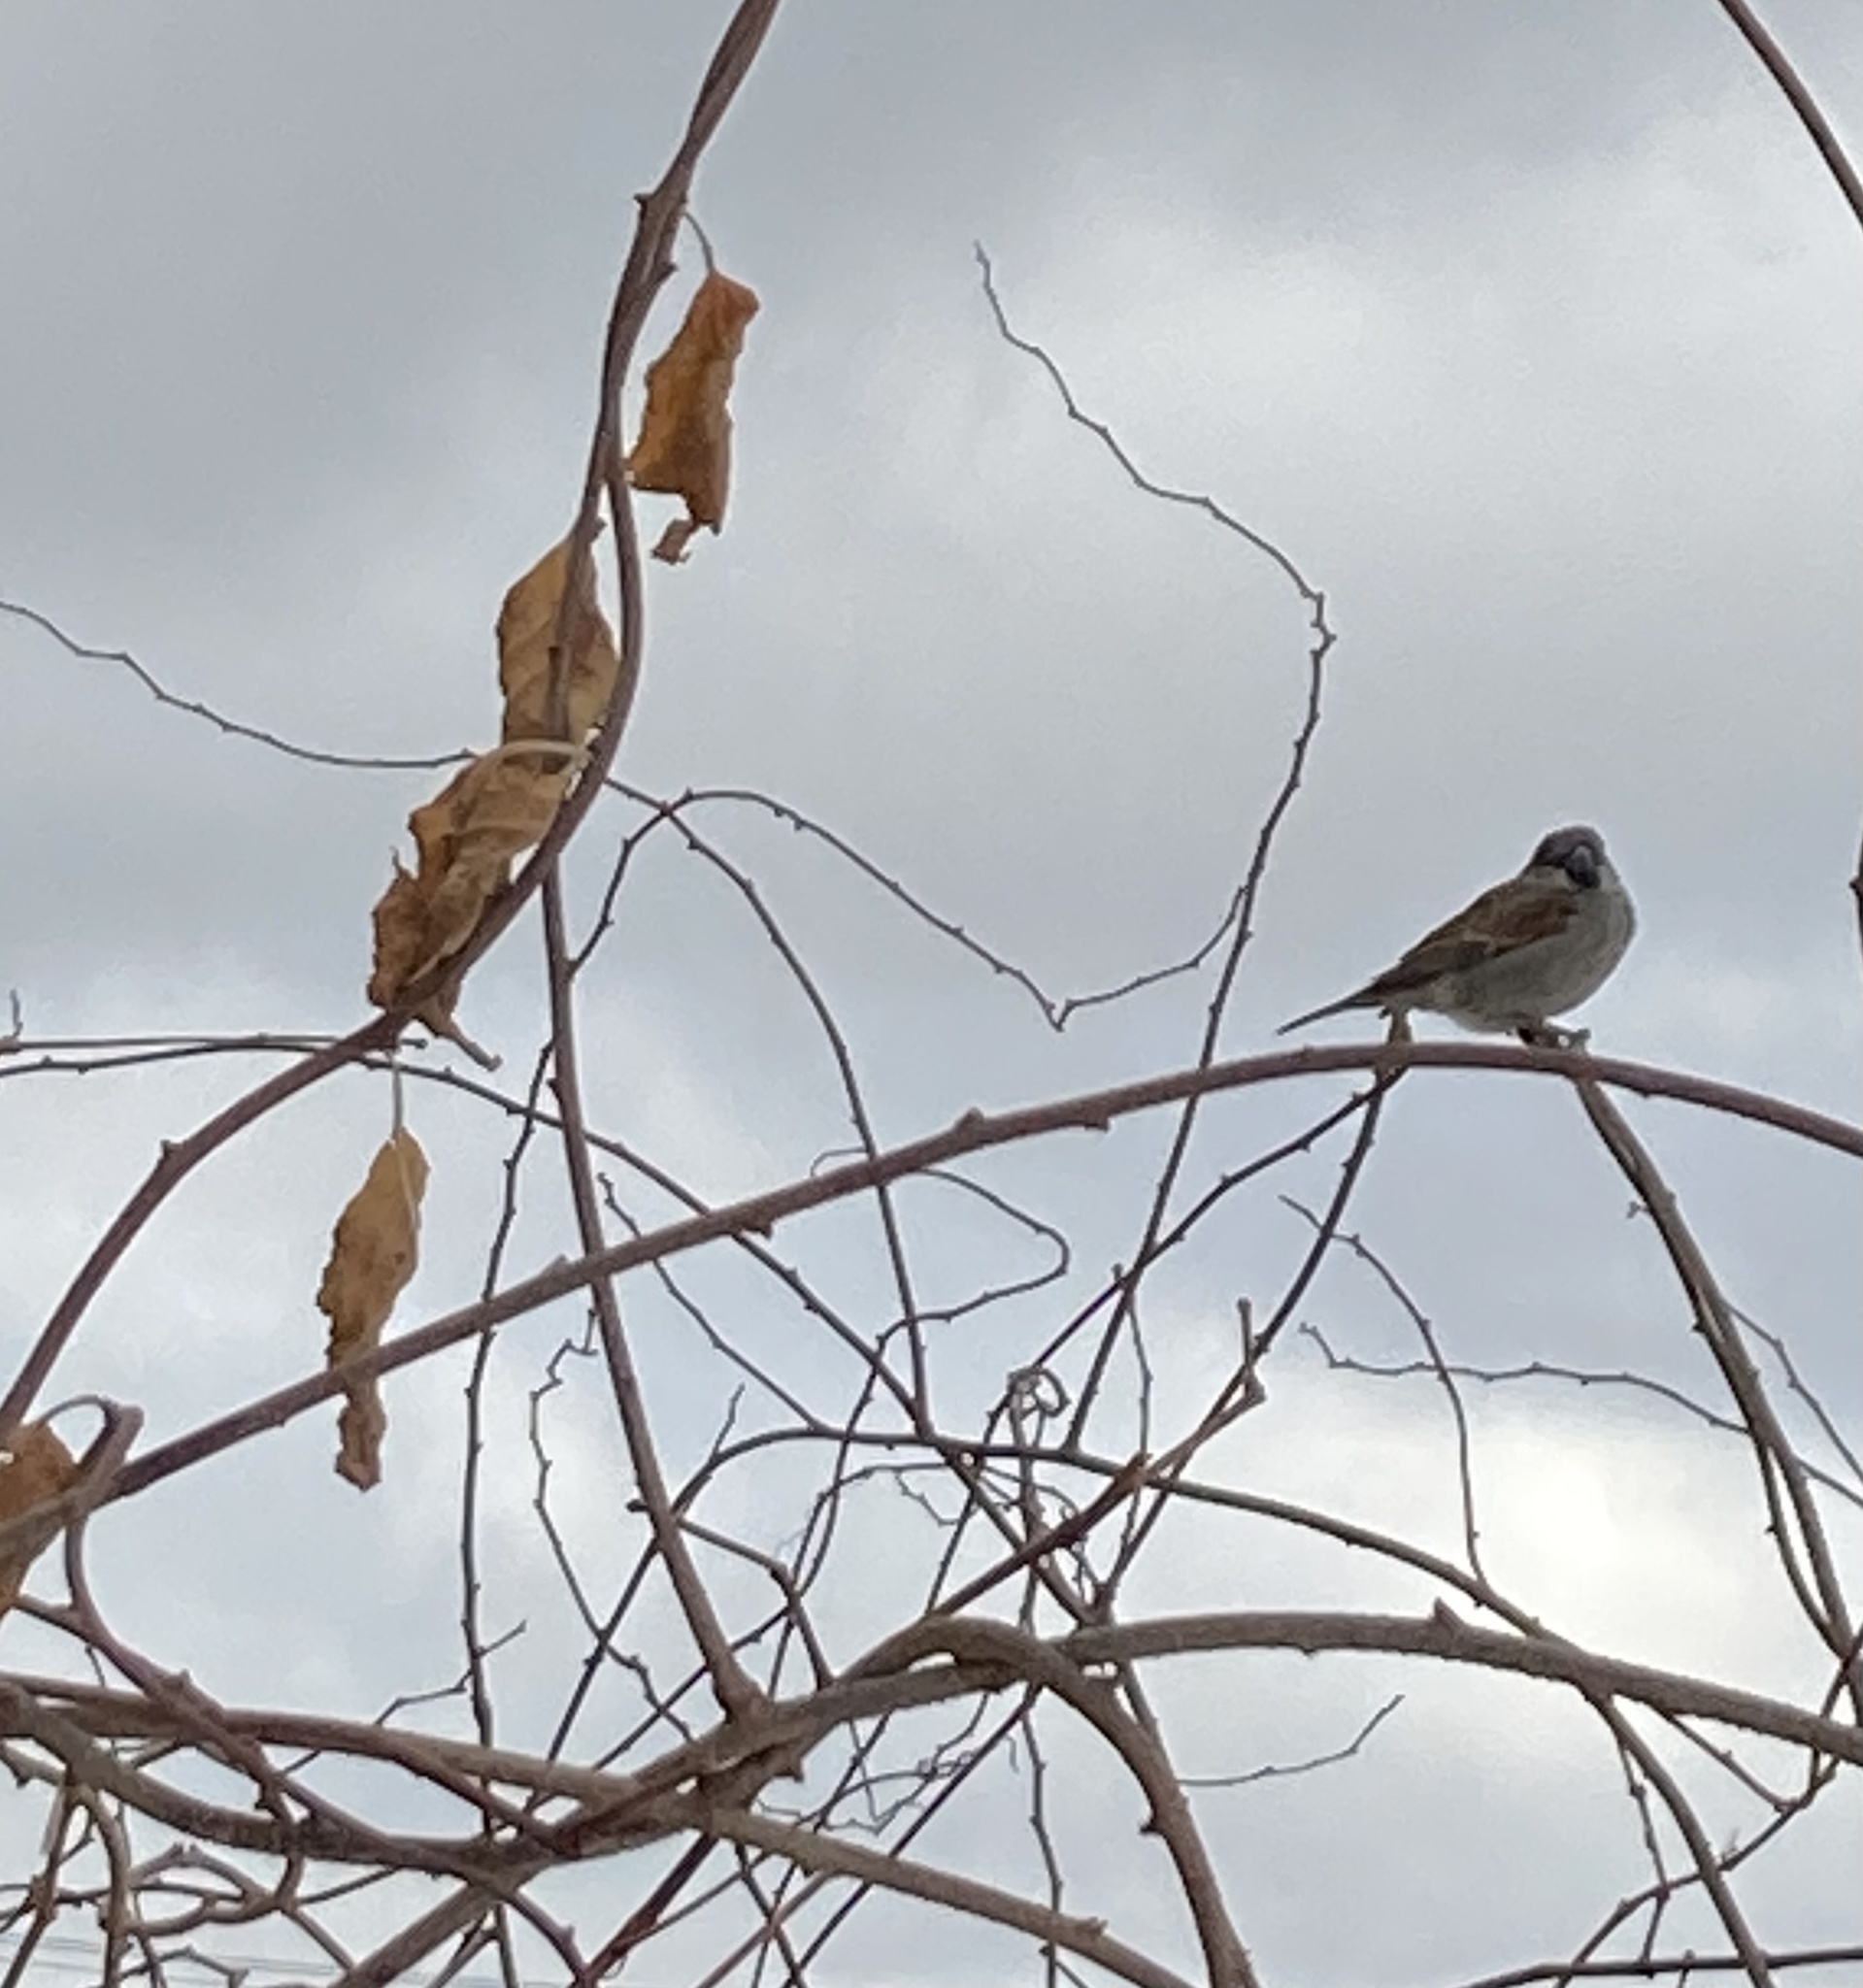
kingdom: Animalia
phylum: Chordata
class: Aves
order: Passeriformes
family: Passeridae
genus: Passer
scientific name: Passer domesticus
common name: House sparrow
